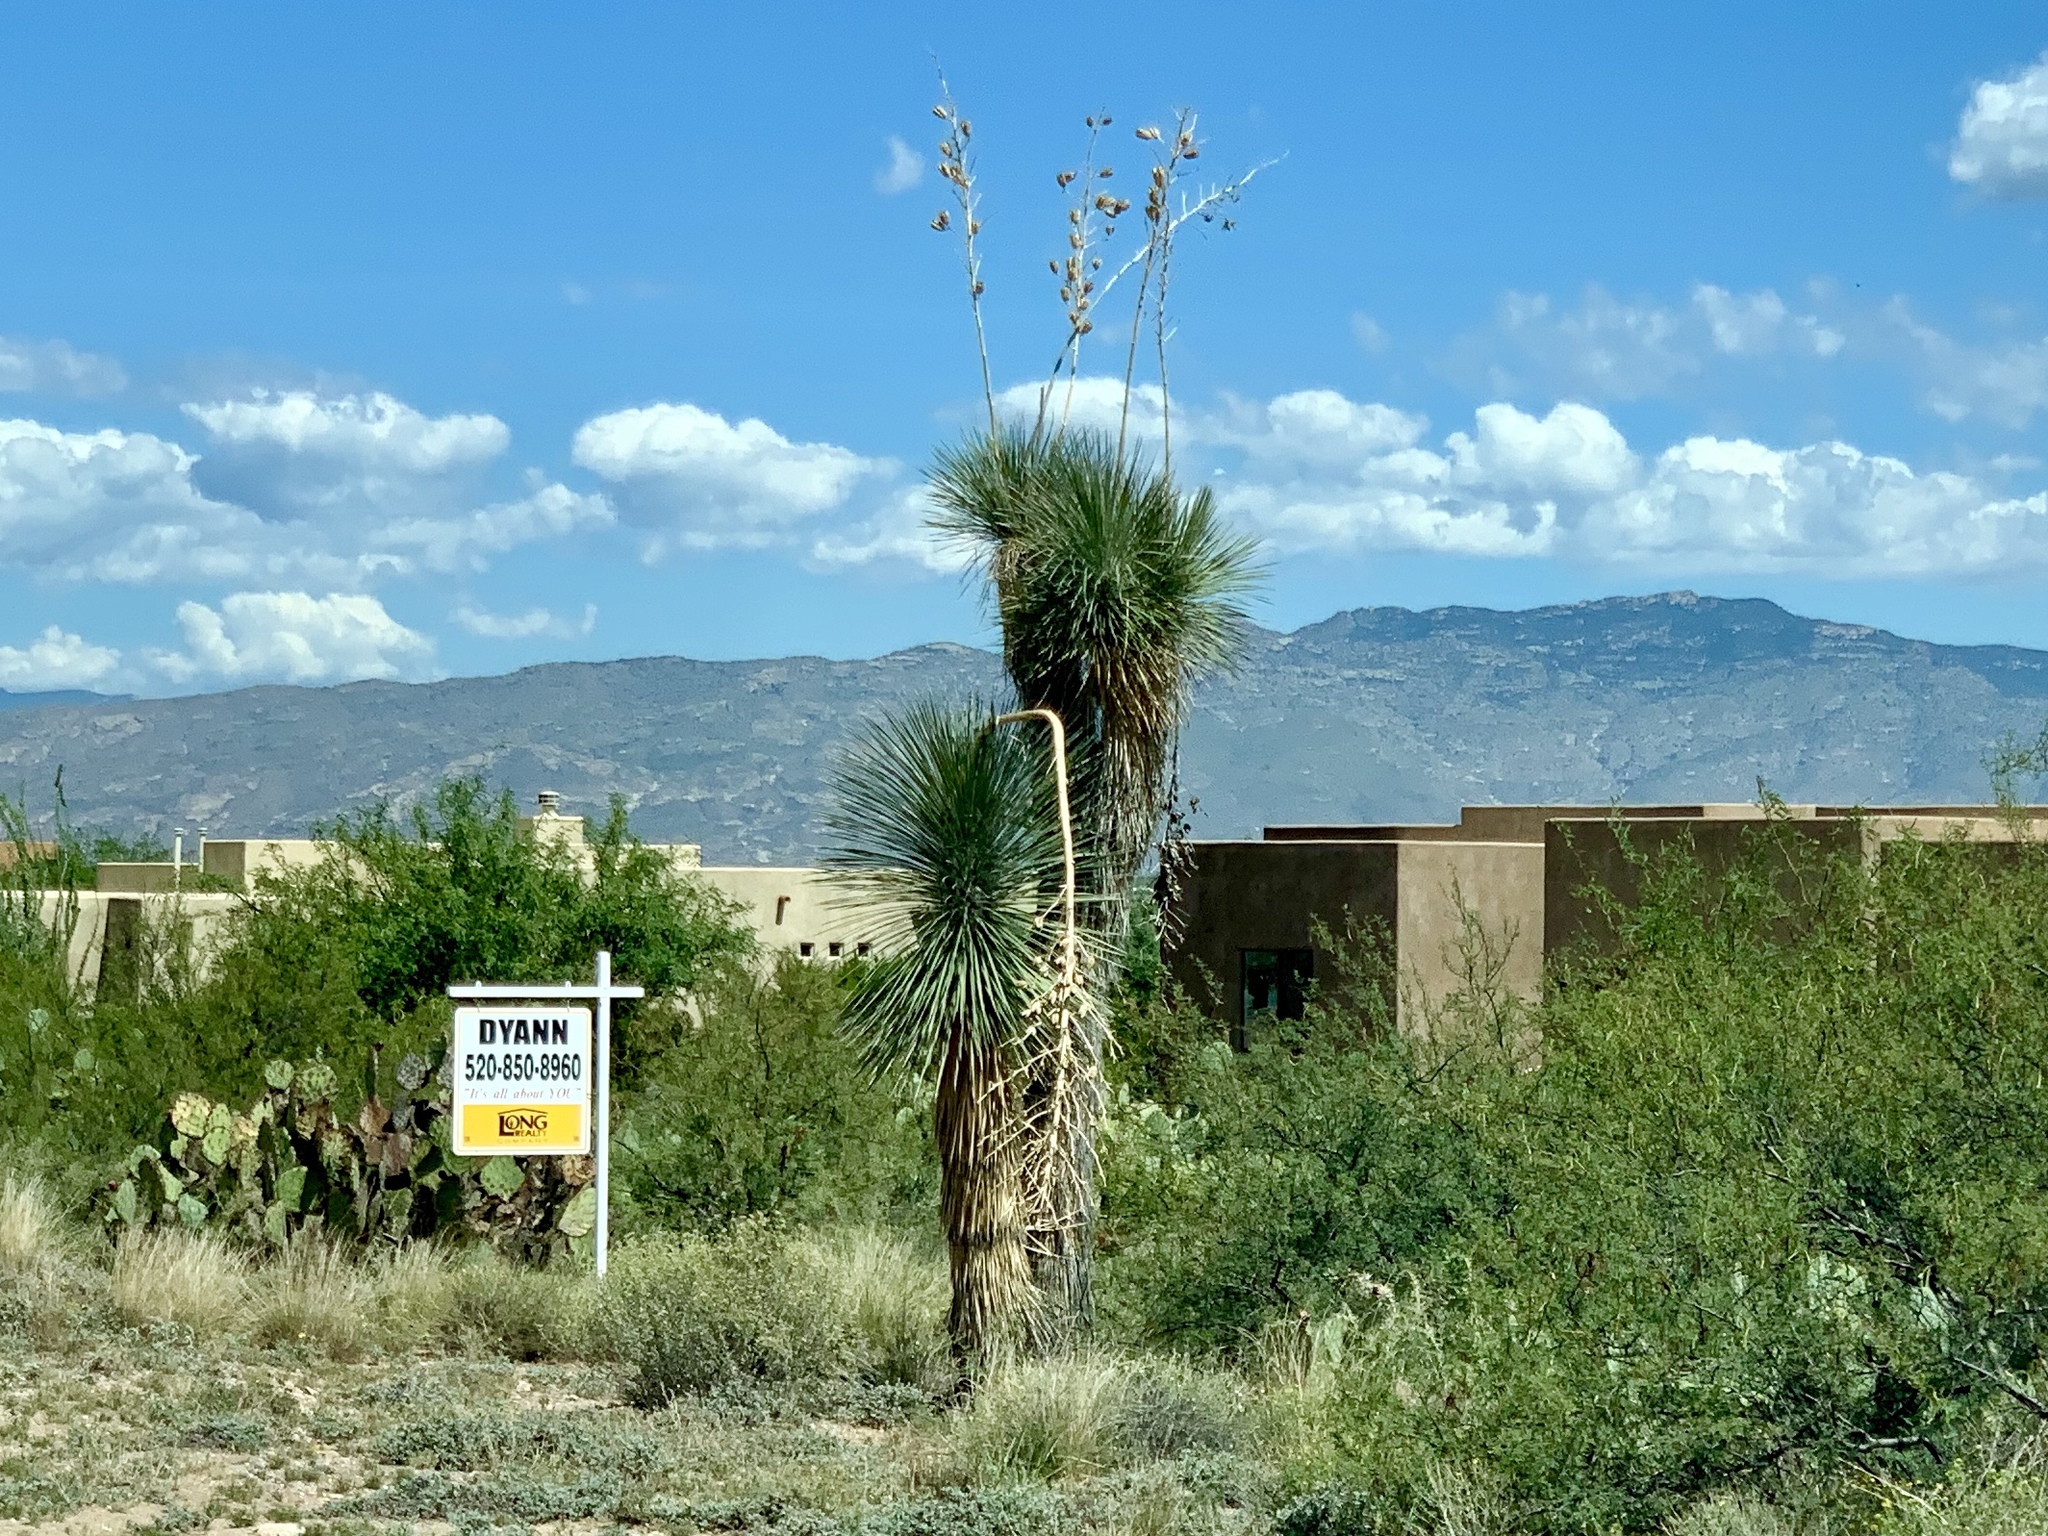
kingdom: Plantae
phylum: Tracheophyta
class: Liliopsida
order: Asparagales
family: Asparagaceae
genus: Yucca
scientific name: Yucca elata
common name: Palmella
